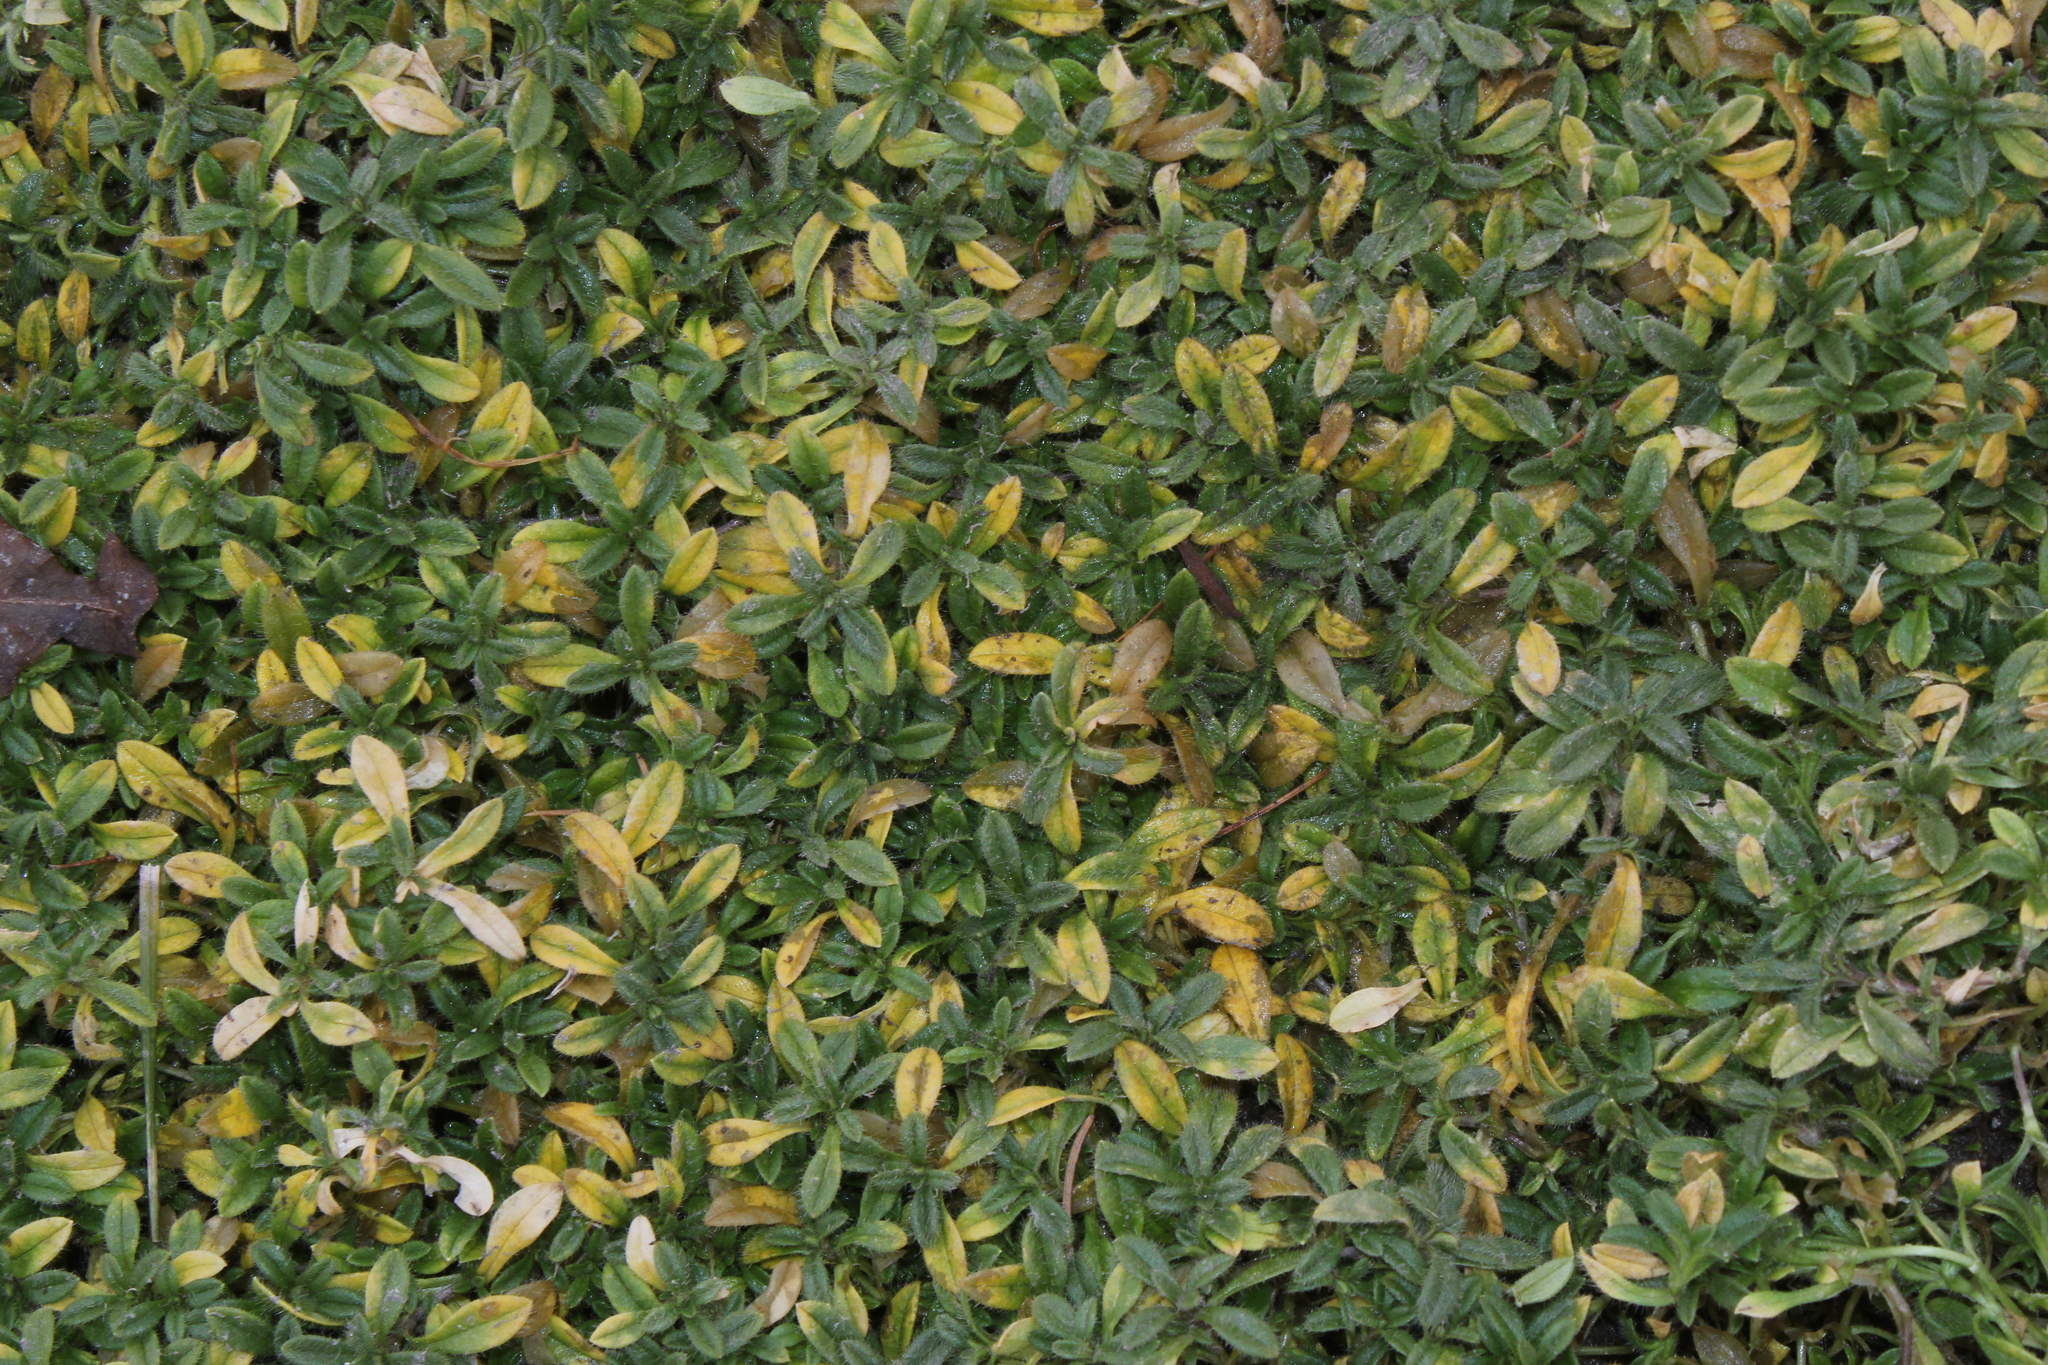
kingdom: Plantae
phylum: Tracheophyta
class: Magnoliopsida
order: Caryophyllales
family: Caryophyllaceae
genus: Cerastium
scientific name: Cerastium fontanum
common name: Common mouse-ear
